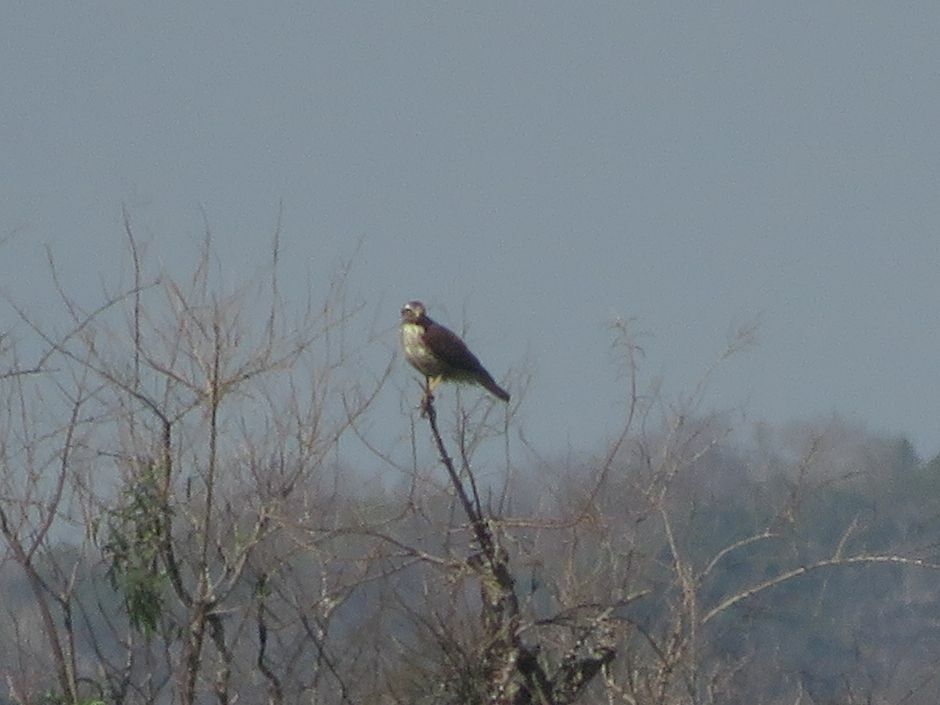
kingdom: Animalia
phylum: Chordata
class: Aves
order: Accipitriformes
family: Accipitridae
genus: Rupornis
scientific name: Rupornis magnirostris
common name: Roadside hawk
